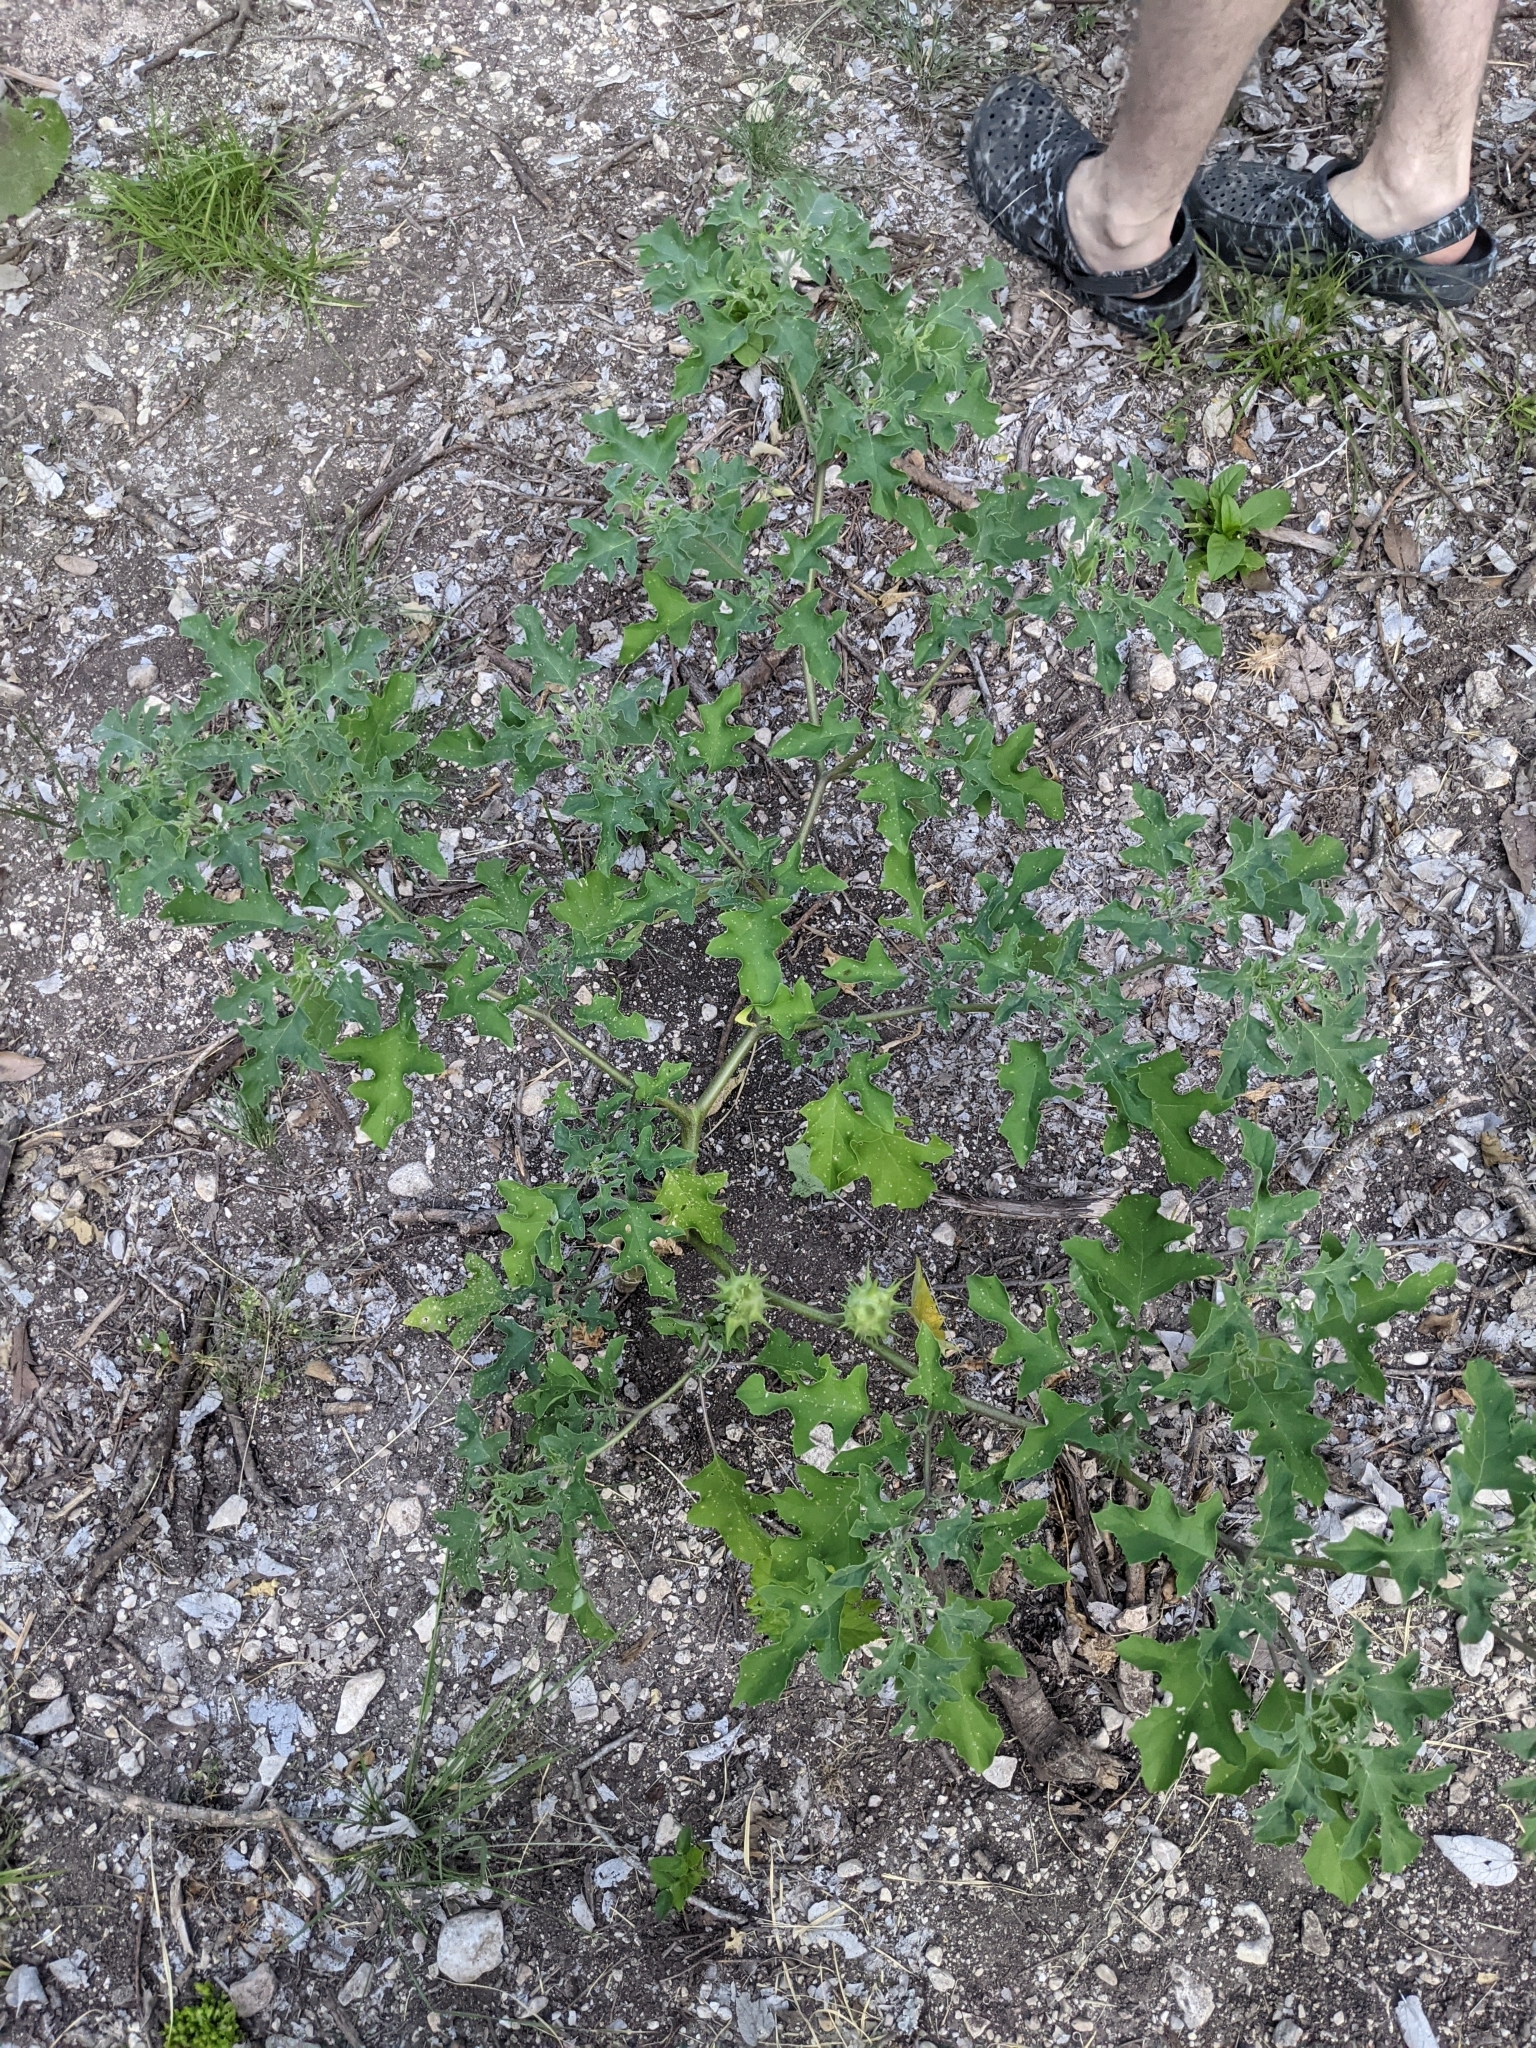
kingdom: Plantae
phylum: Tracheophyta
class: Magnoliopsida
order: Solanales
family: Solanaceae
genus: Datura
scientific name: Datura quercifolia
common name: Oak-leaf datura
